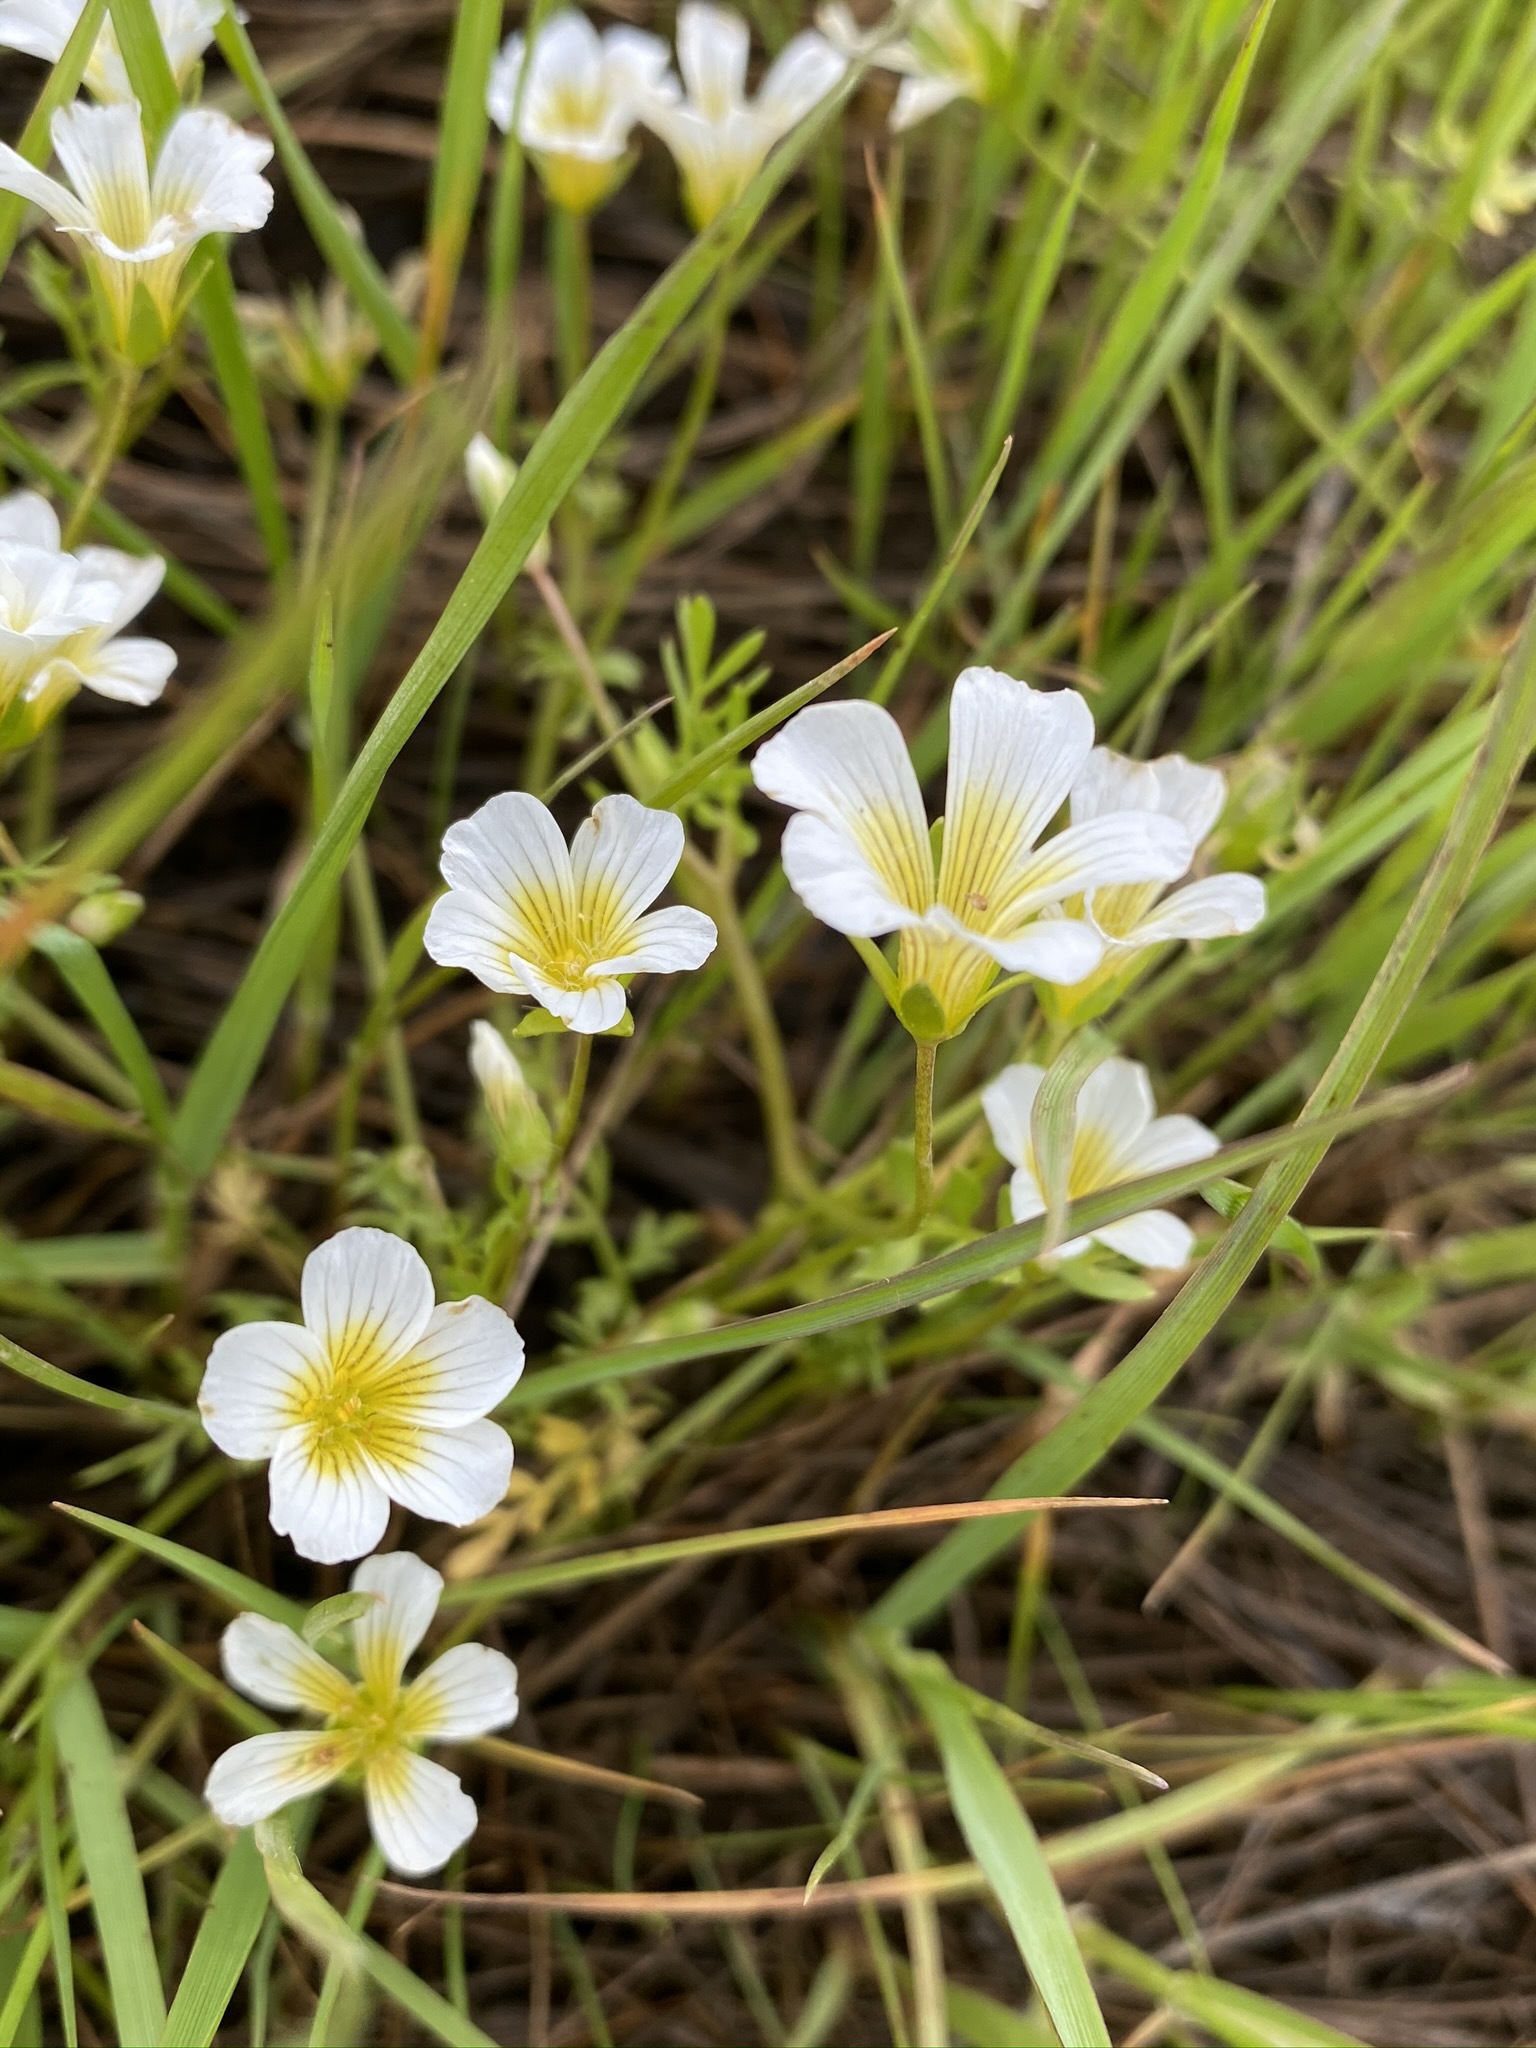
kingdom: Plantae
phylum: Tracheophyta
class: Magnoliopsida
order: Brassicales
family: Limnanthaceae
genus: Limnanthes
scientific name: Limnanthes douglasii
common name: Meadow-foam
